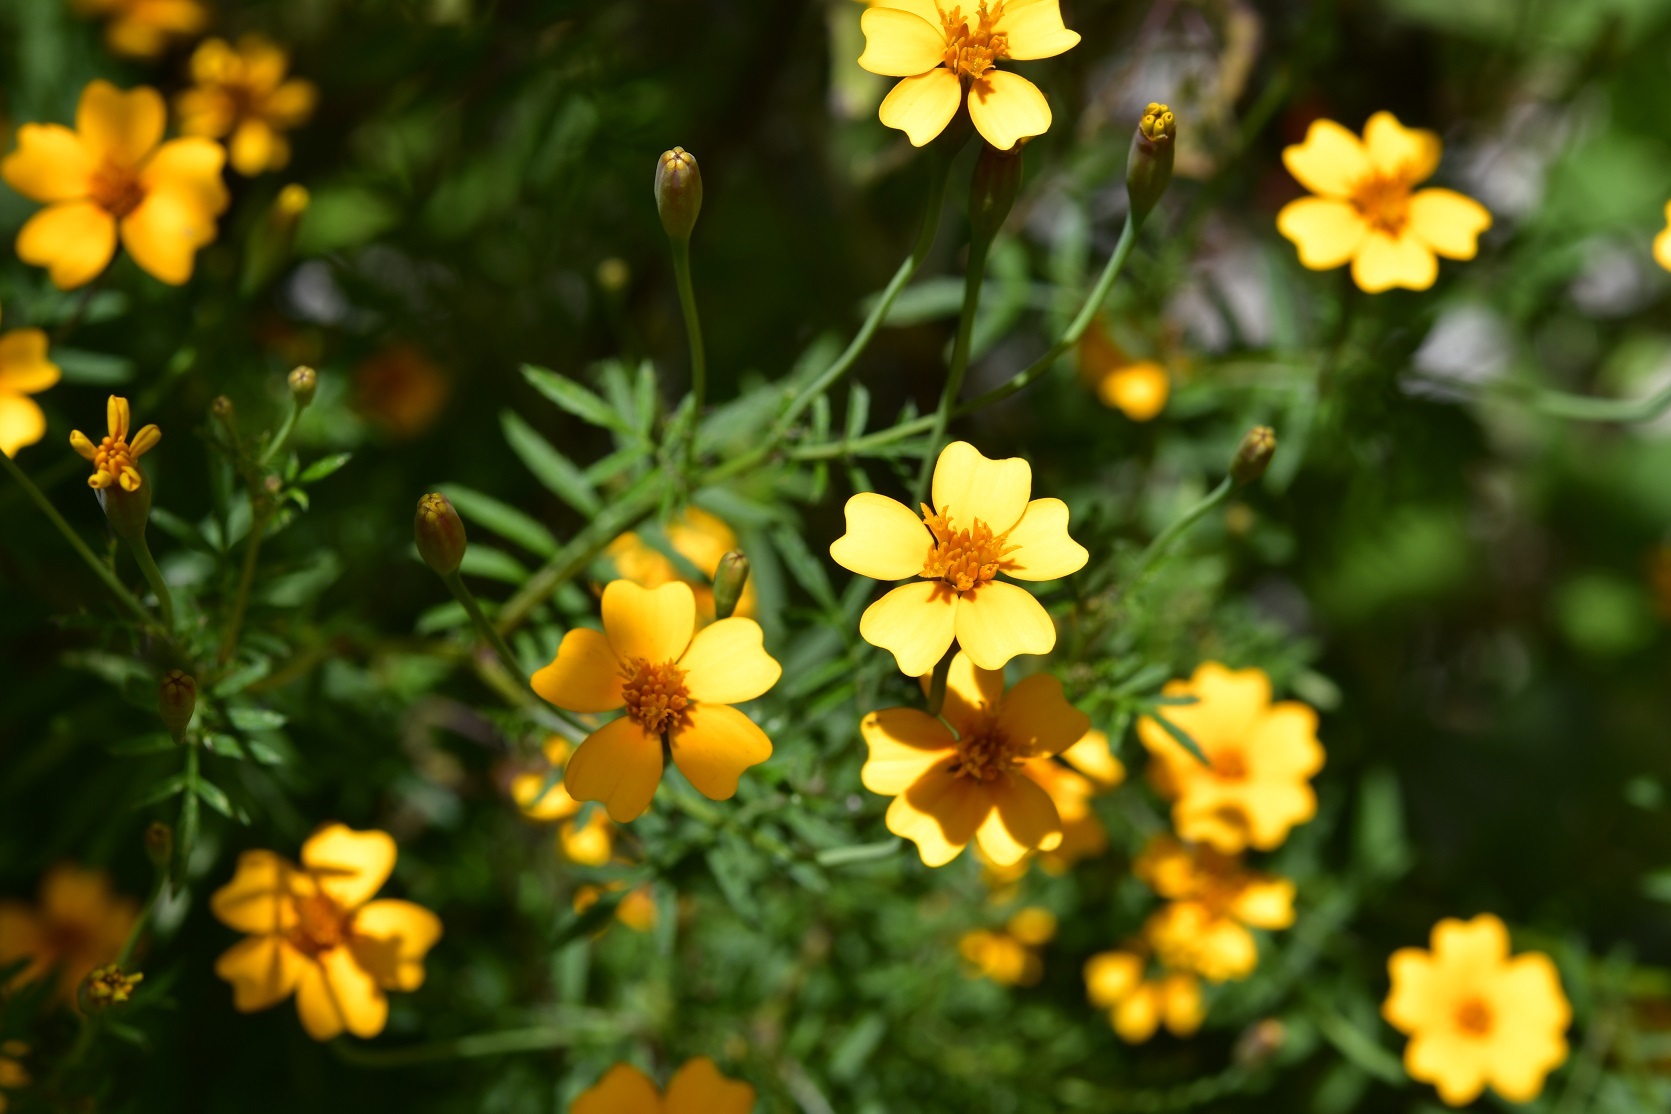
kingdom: Plantae
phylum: Tracheophyta
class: Magnoliopsida
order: Asterales
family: Asteraceae
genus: Tagetes
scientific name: Tagetes tenuifolia
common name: Signet marigold
